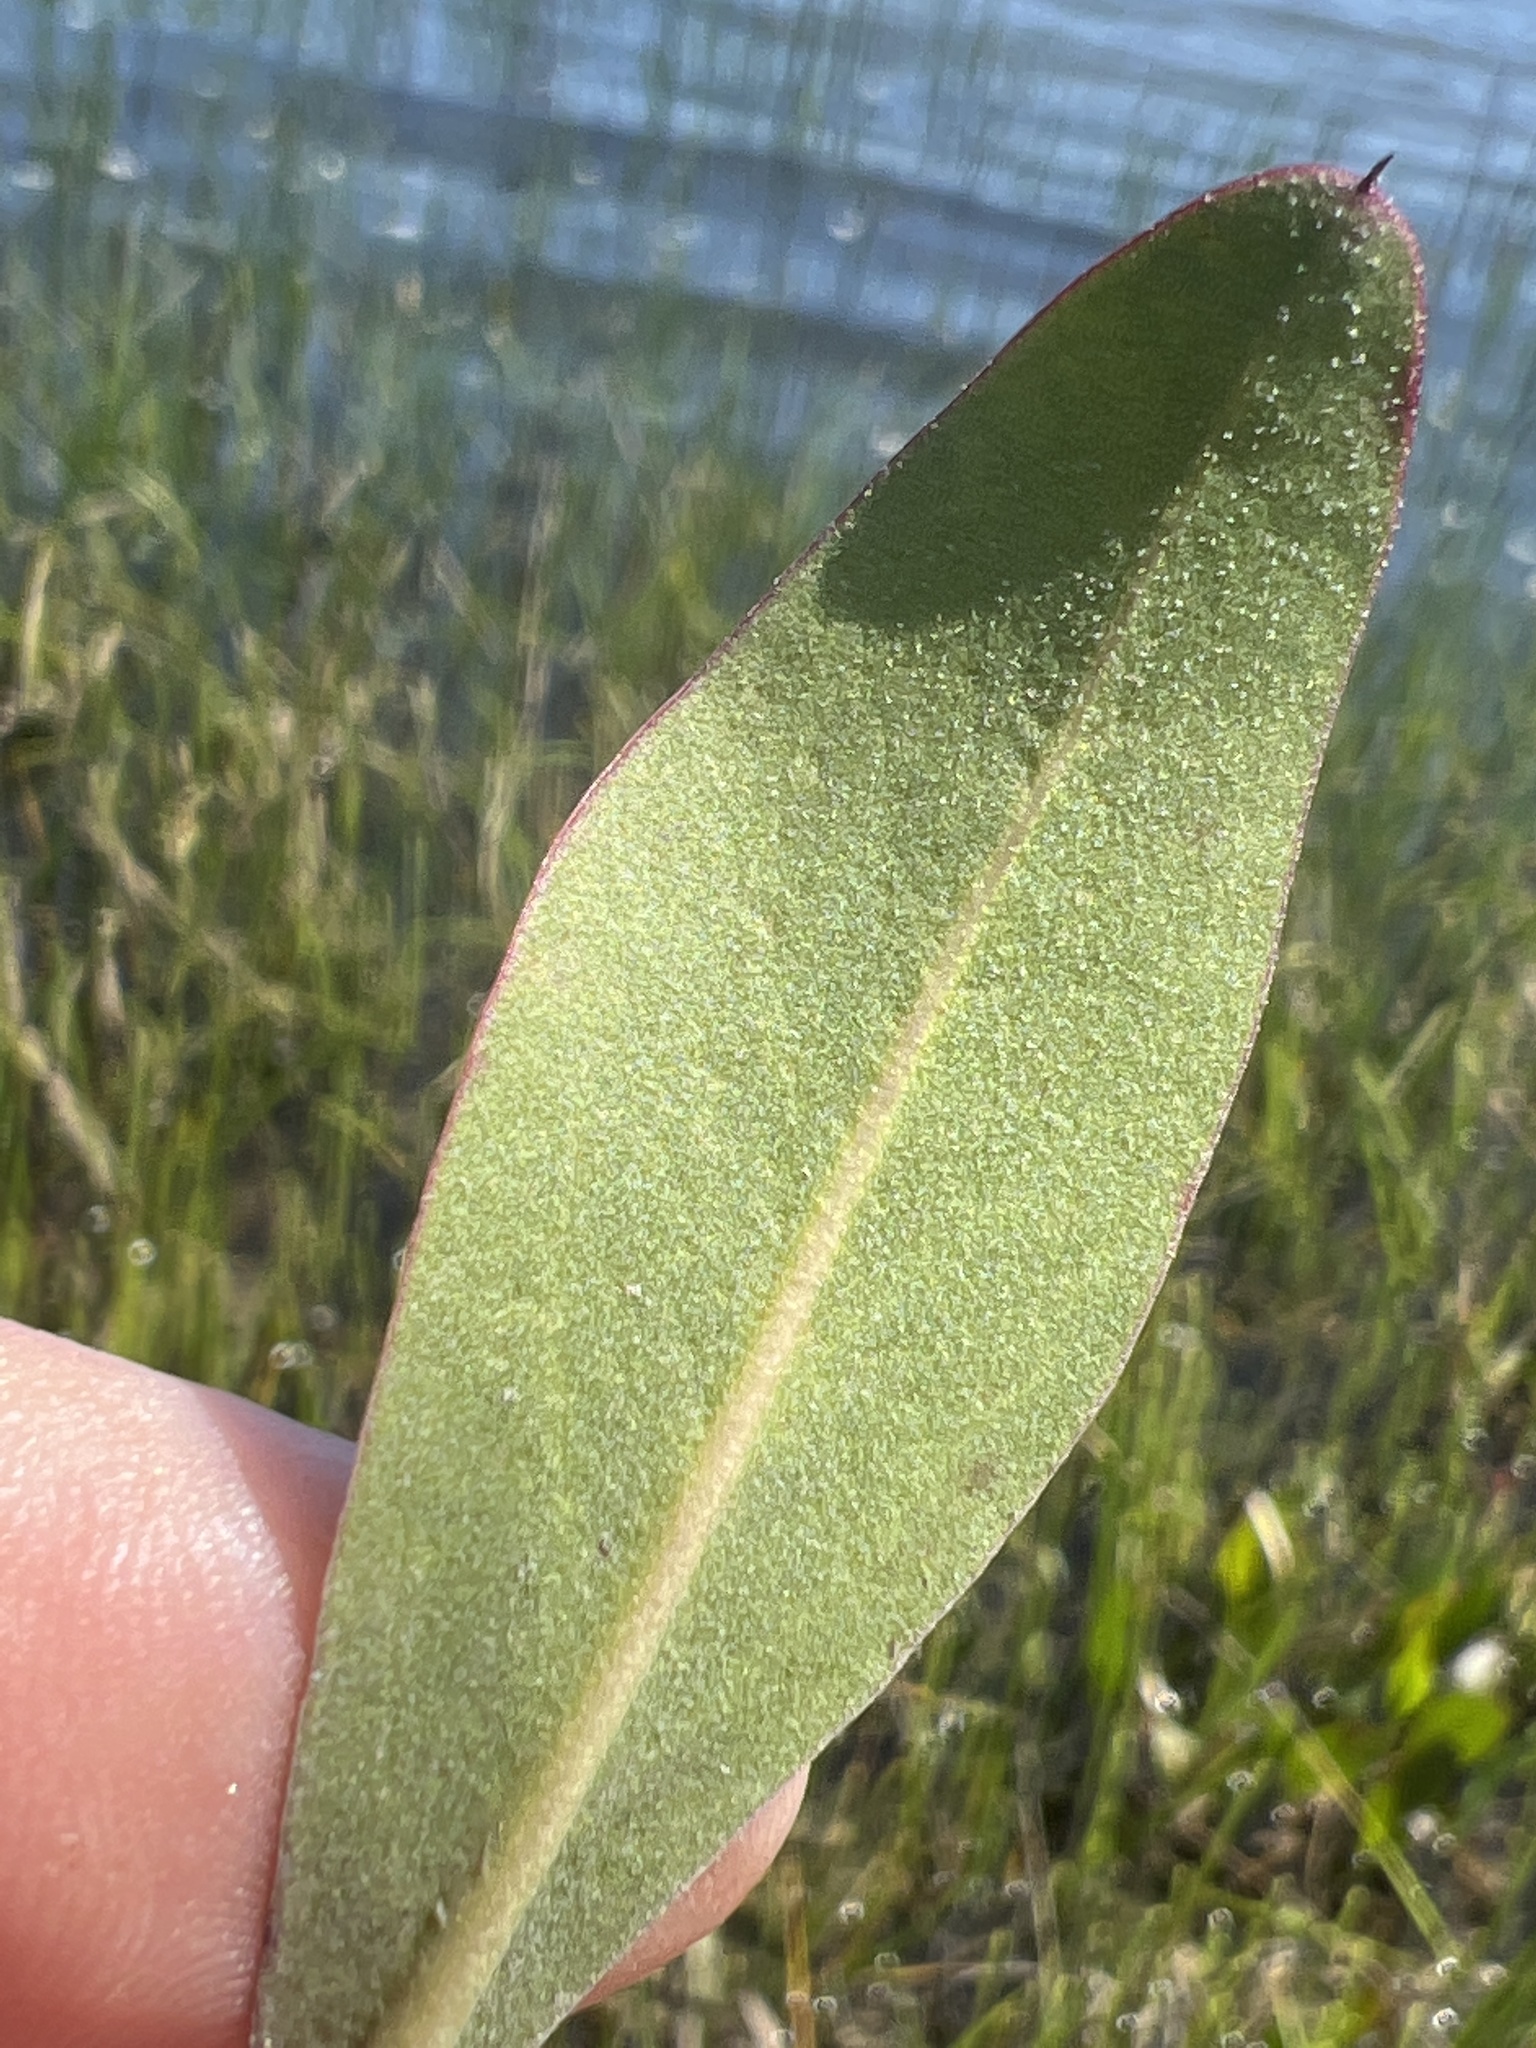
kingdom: Plantae
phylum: Tracheophyta
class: Magnoliopsida
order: Caryophyllales
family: Plumbaginaceae
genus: Limonium
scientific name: Limonium carolinianum
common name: Carolina sea lavender
